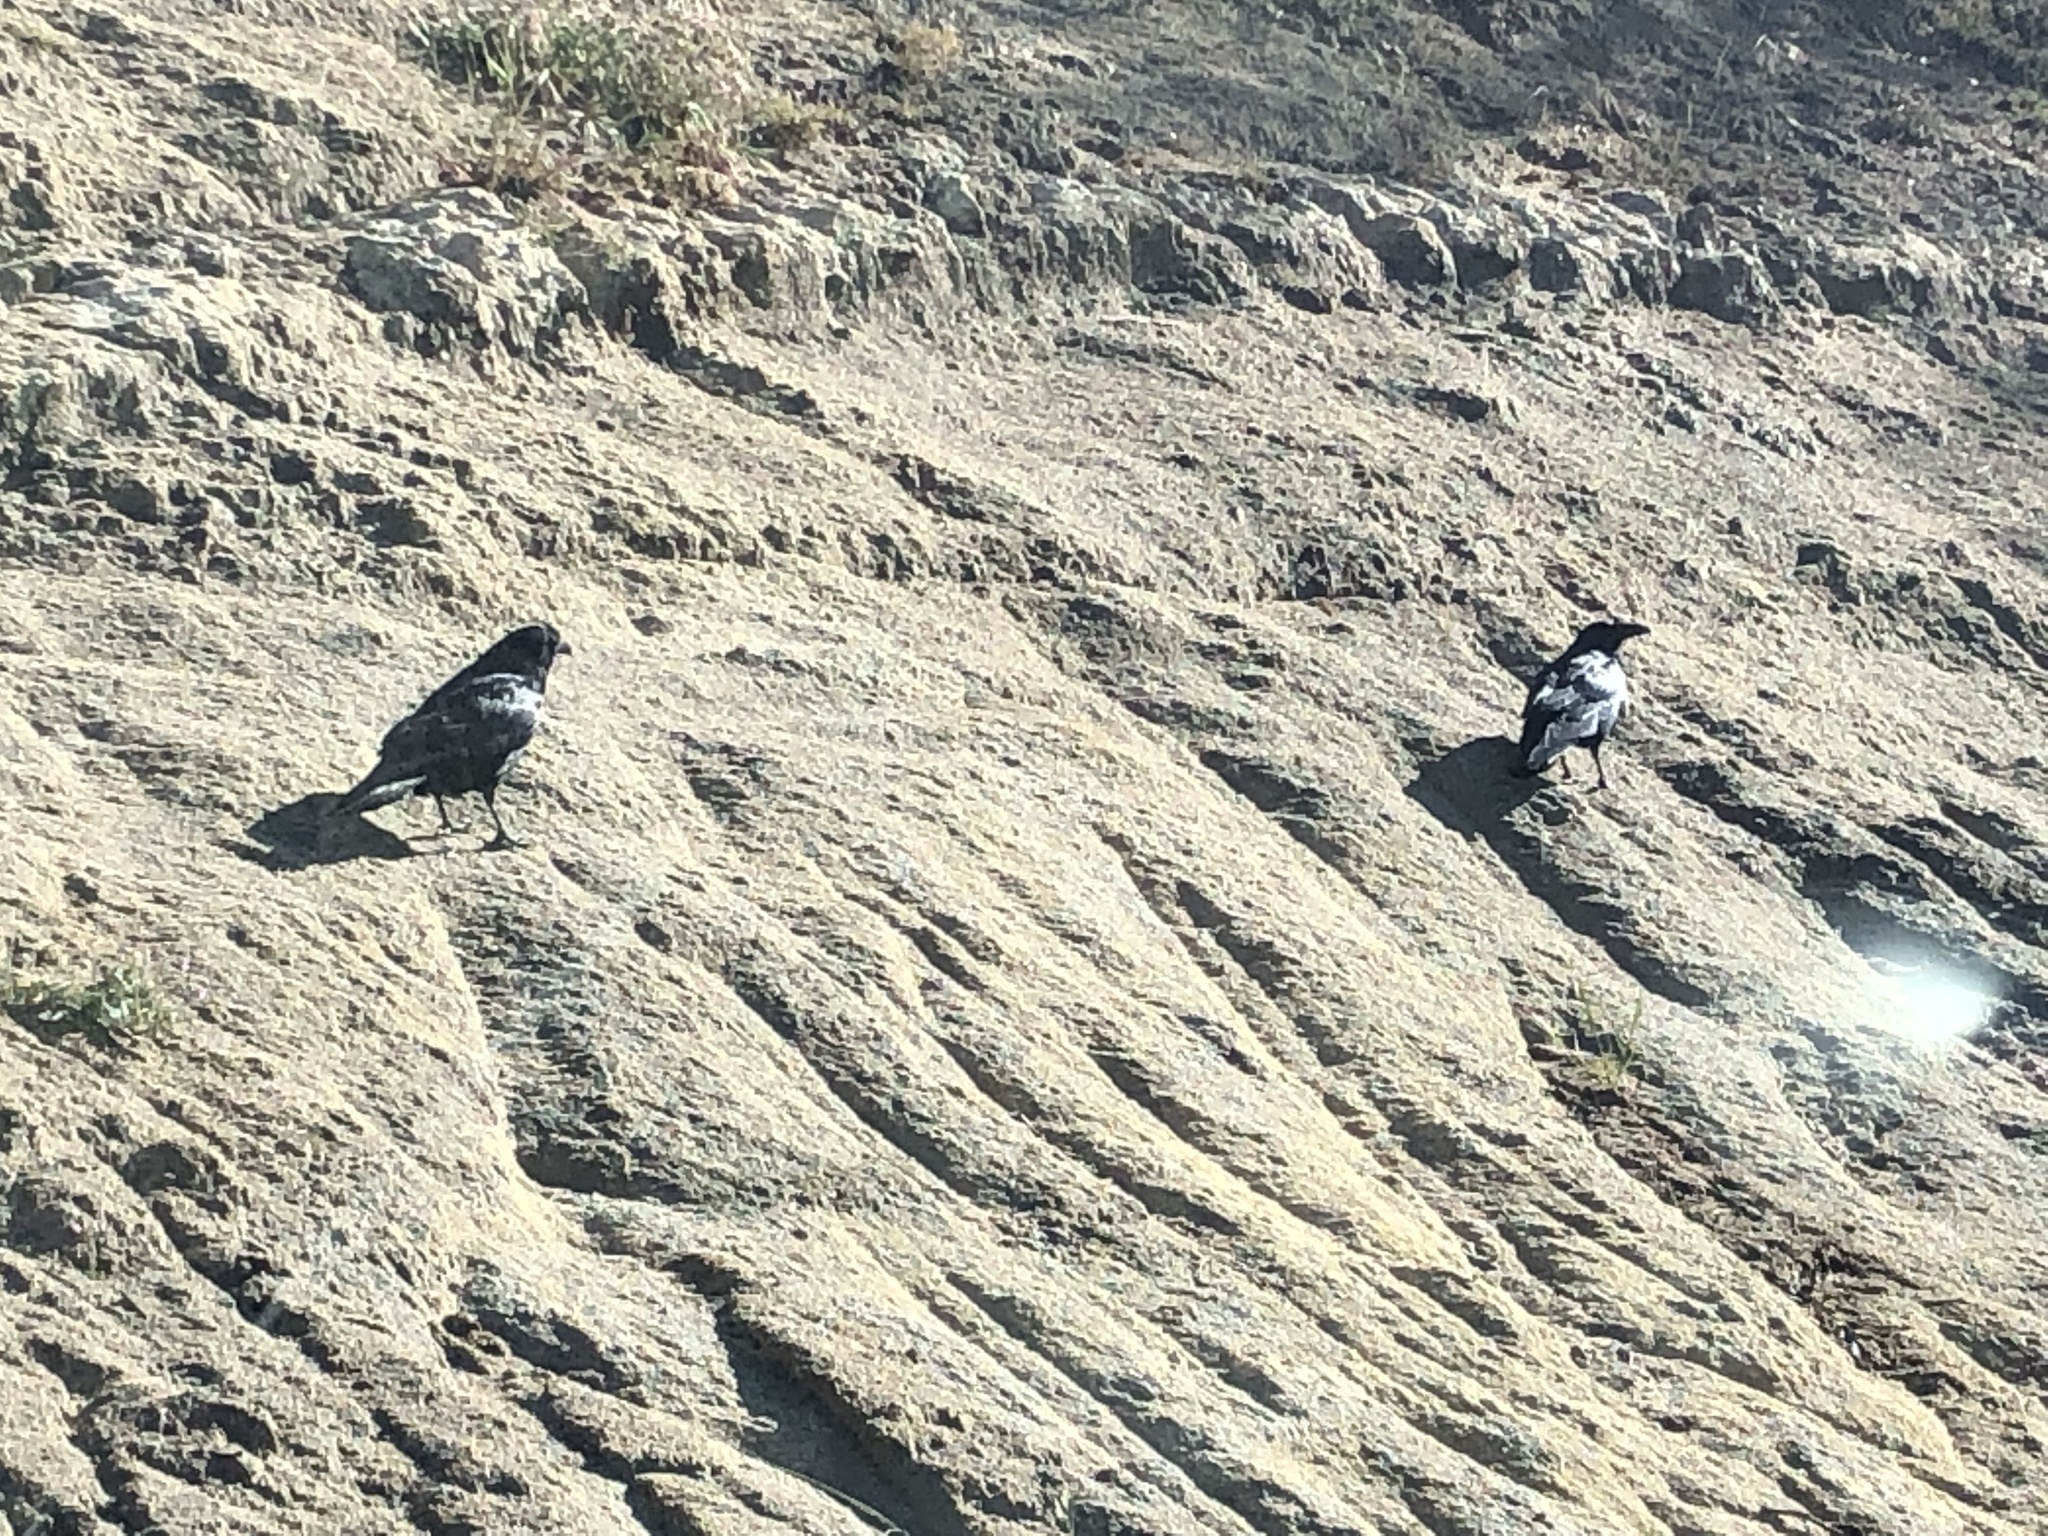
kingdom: Animalia
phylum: Chordata
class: Aves
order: Passeriformes
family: Corvidae
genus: Corvus
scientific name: Corvus corax
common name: Common raven
